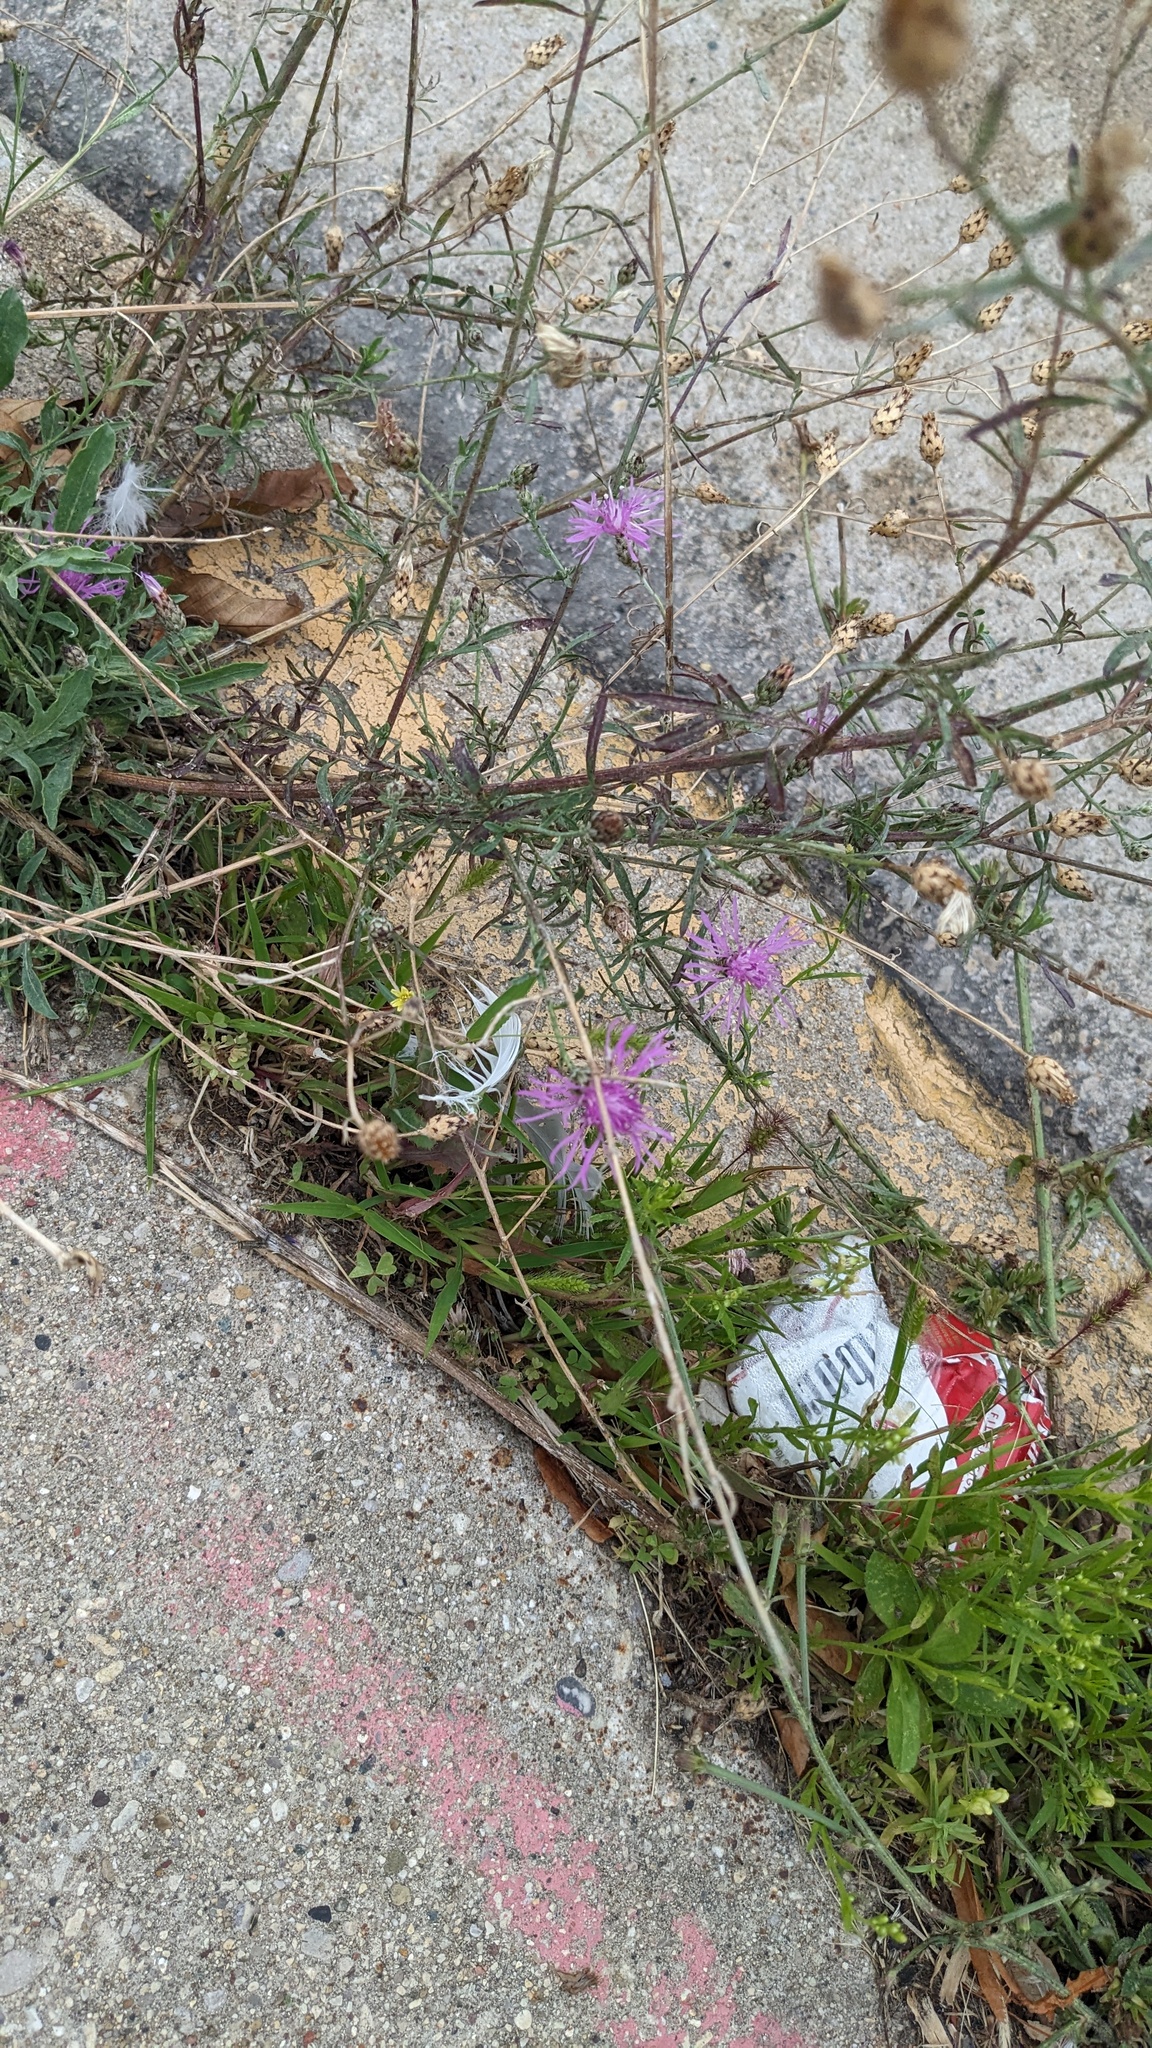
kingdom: Plantae
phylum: Tracheophyta
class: Magnoliopsida
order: Asterales
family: Asteraceae
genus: Centaurea
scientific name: Centaurea stoebe
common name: Spotted knapweed
